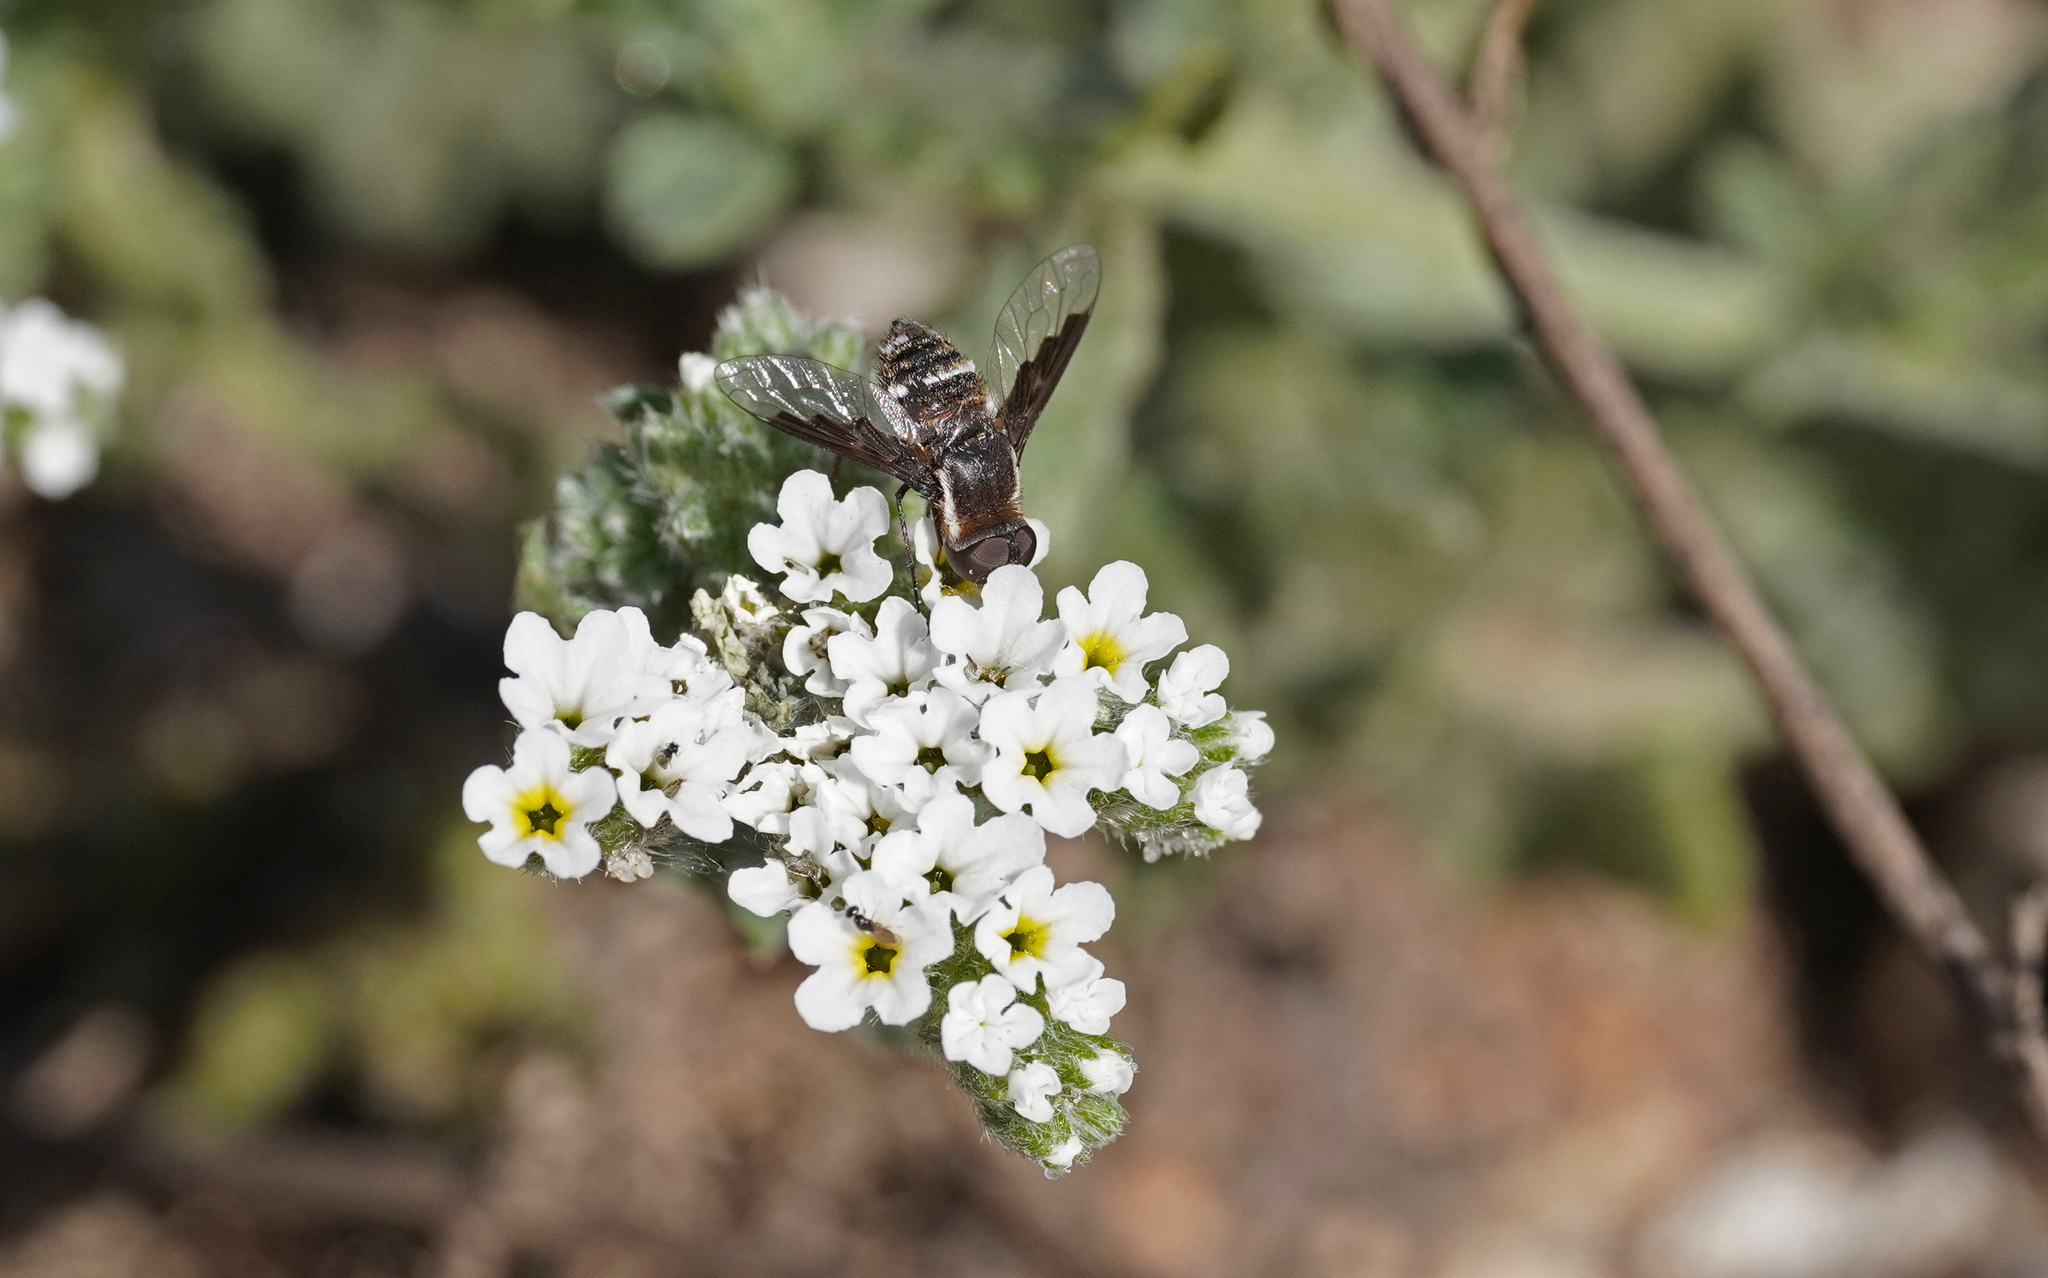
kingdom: Animalia
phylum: Arthropoda
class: Insecta
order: Diptera
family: Bombyliidae
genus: Exhyalanthrax
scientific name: Exhyalanthrax simonae
